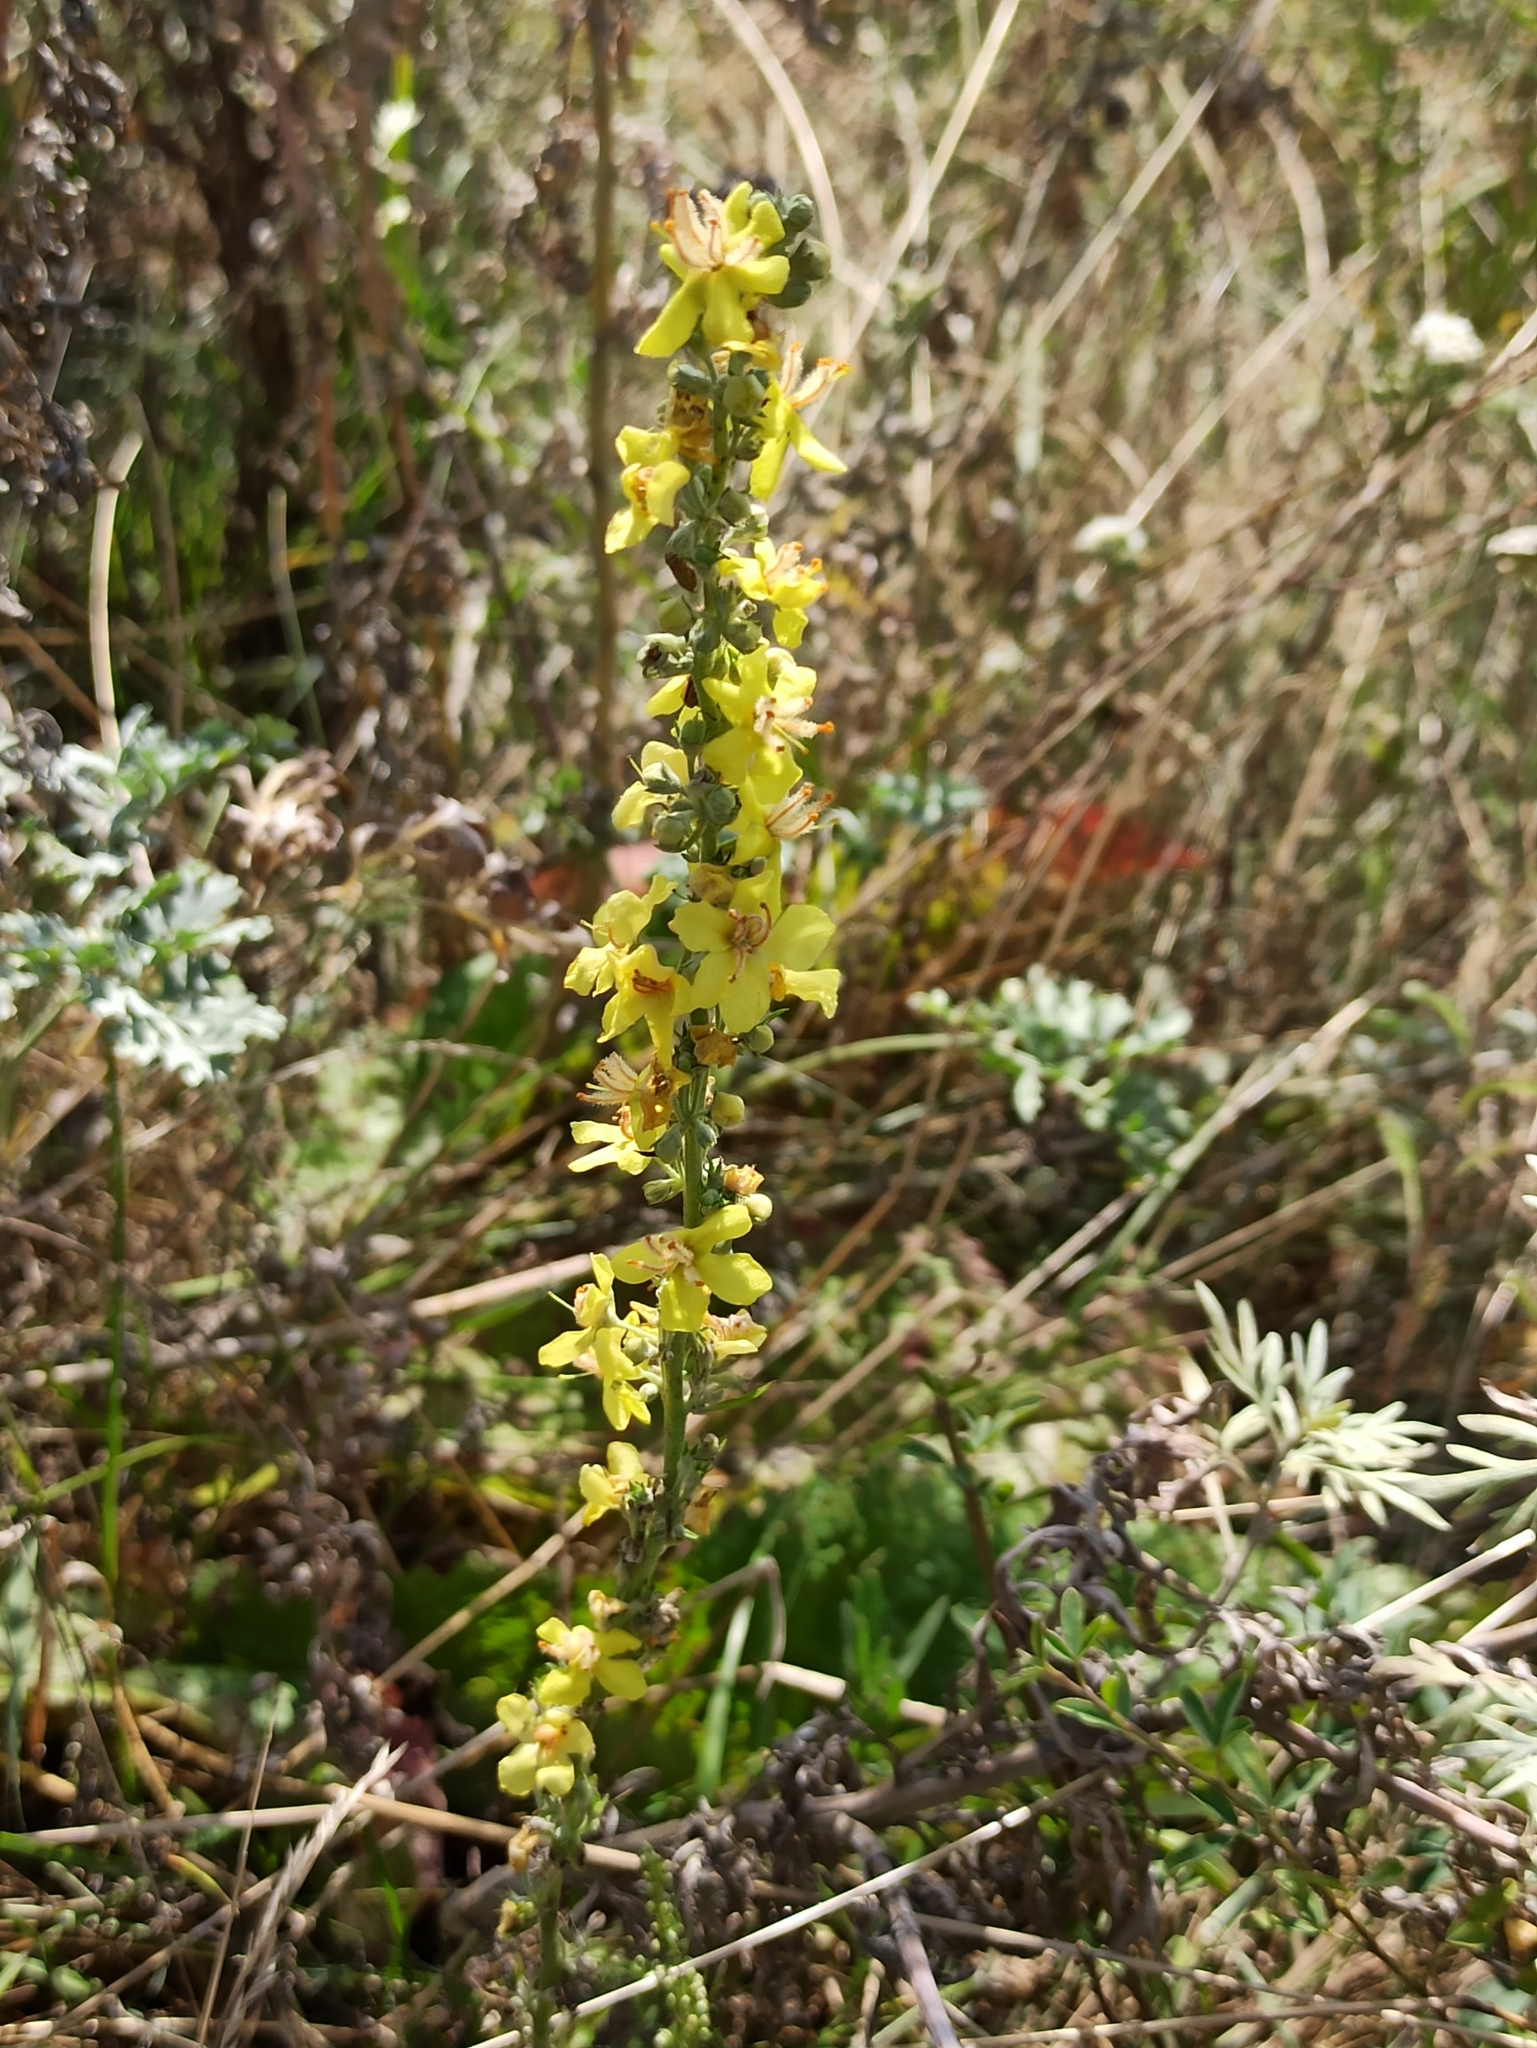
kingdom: Plantae
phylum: Tracheophyta
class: Magnoliopsida
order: Lamiales
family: Scrophulariaceae
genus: Verbascum
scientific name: Verbascum lychnitis
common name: White mullein
